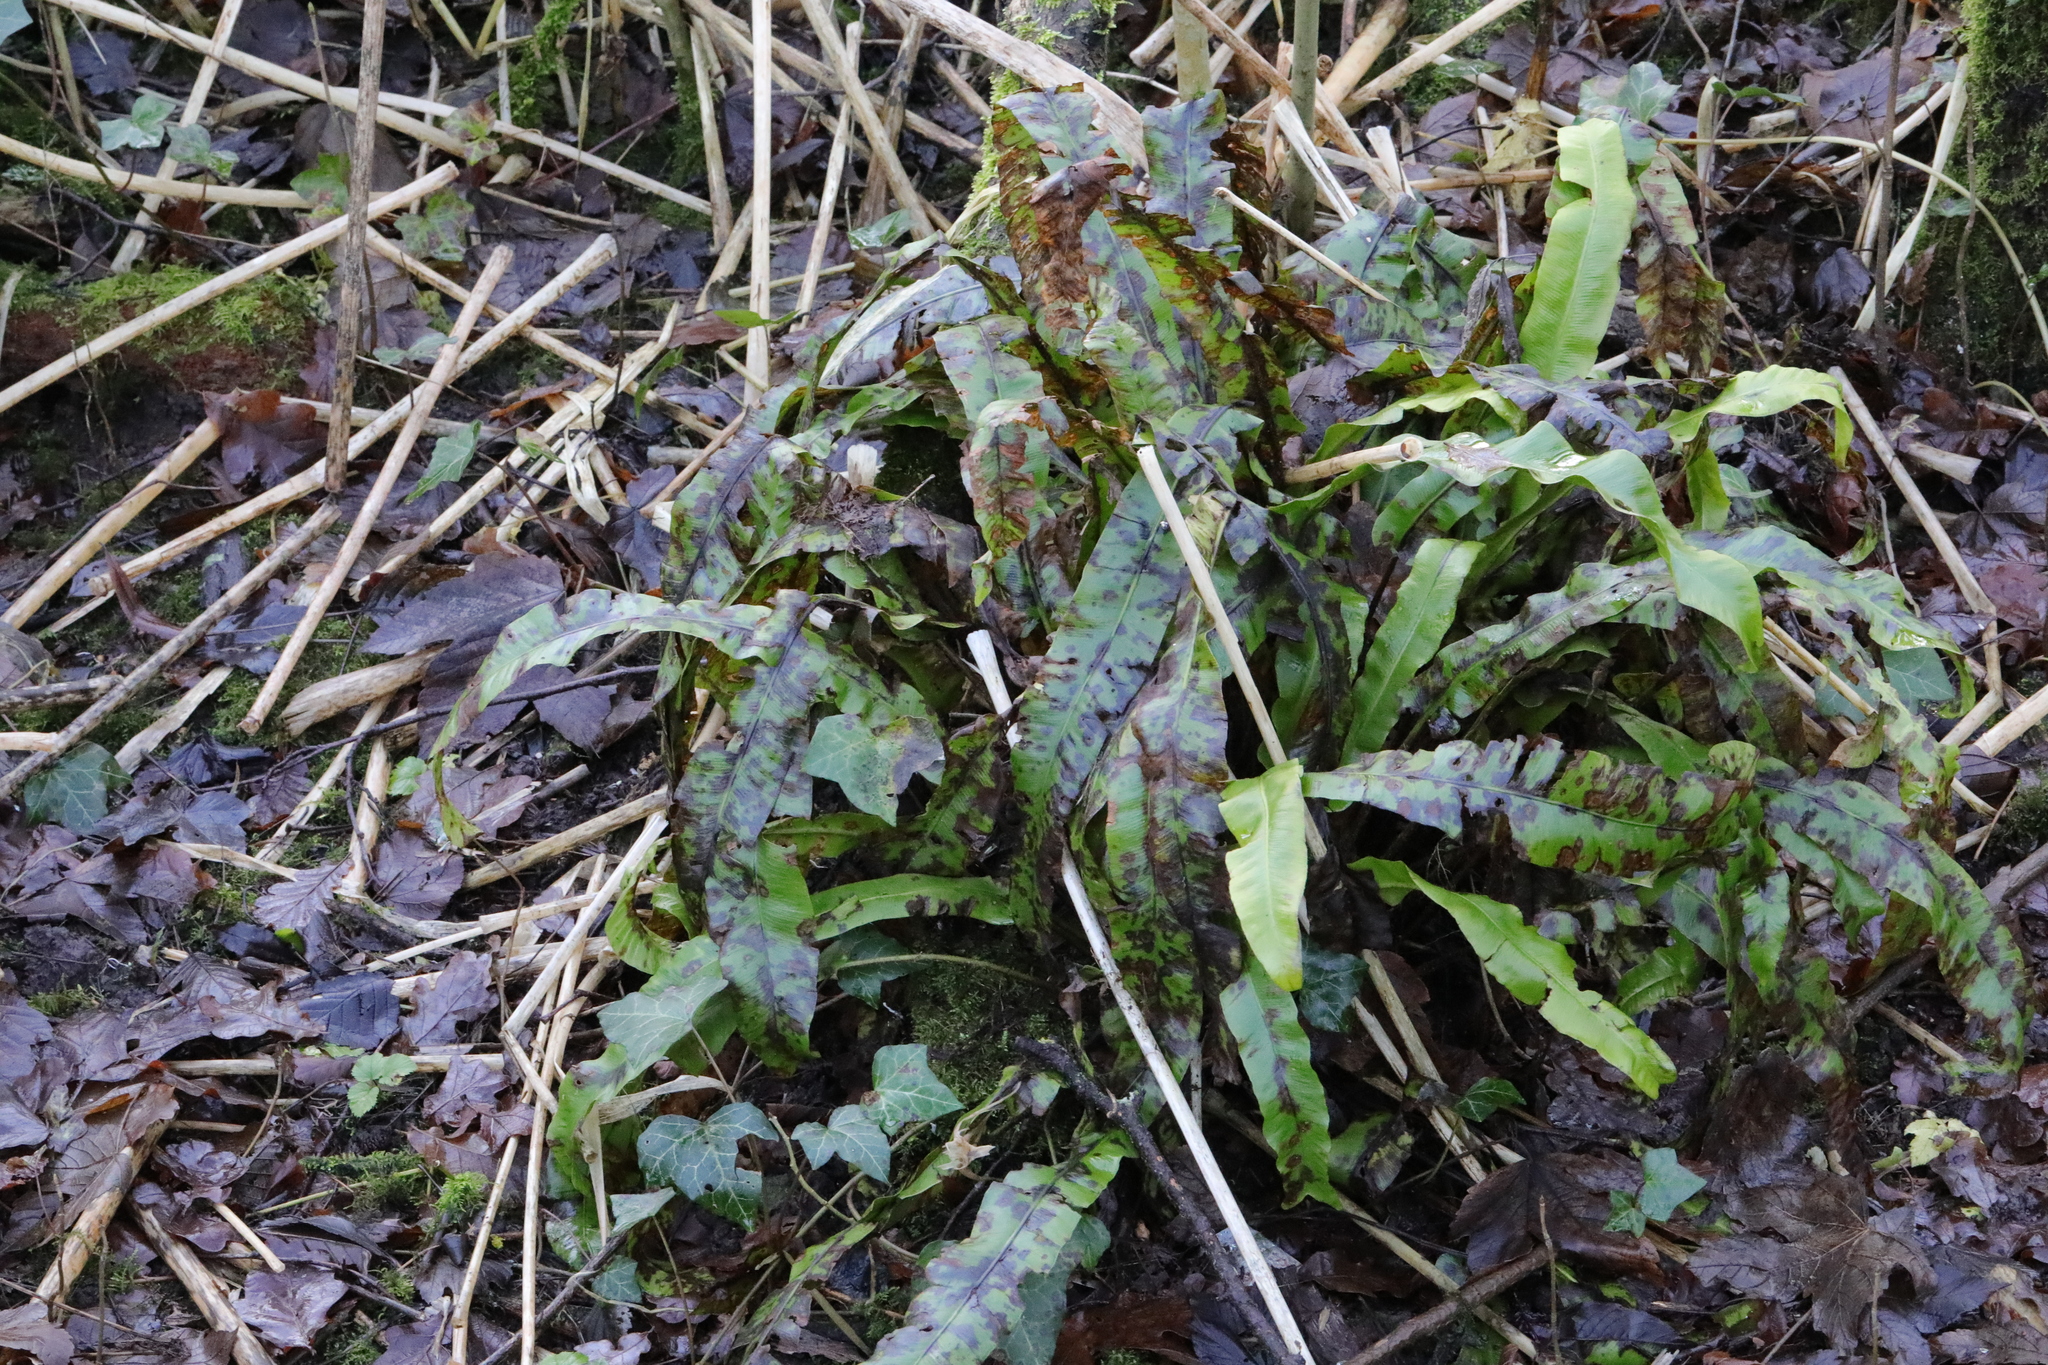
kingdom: Plantae
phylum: Tracheophyta
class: Polypodiopsida
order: Polypodiales
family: Aspleniaceae
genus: Asplenium
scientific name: Asplenium scolopendrium
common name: Hart's-tongue fern
